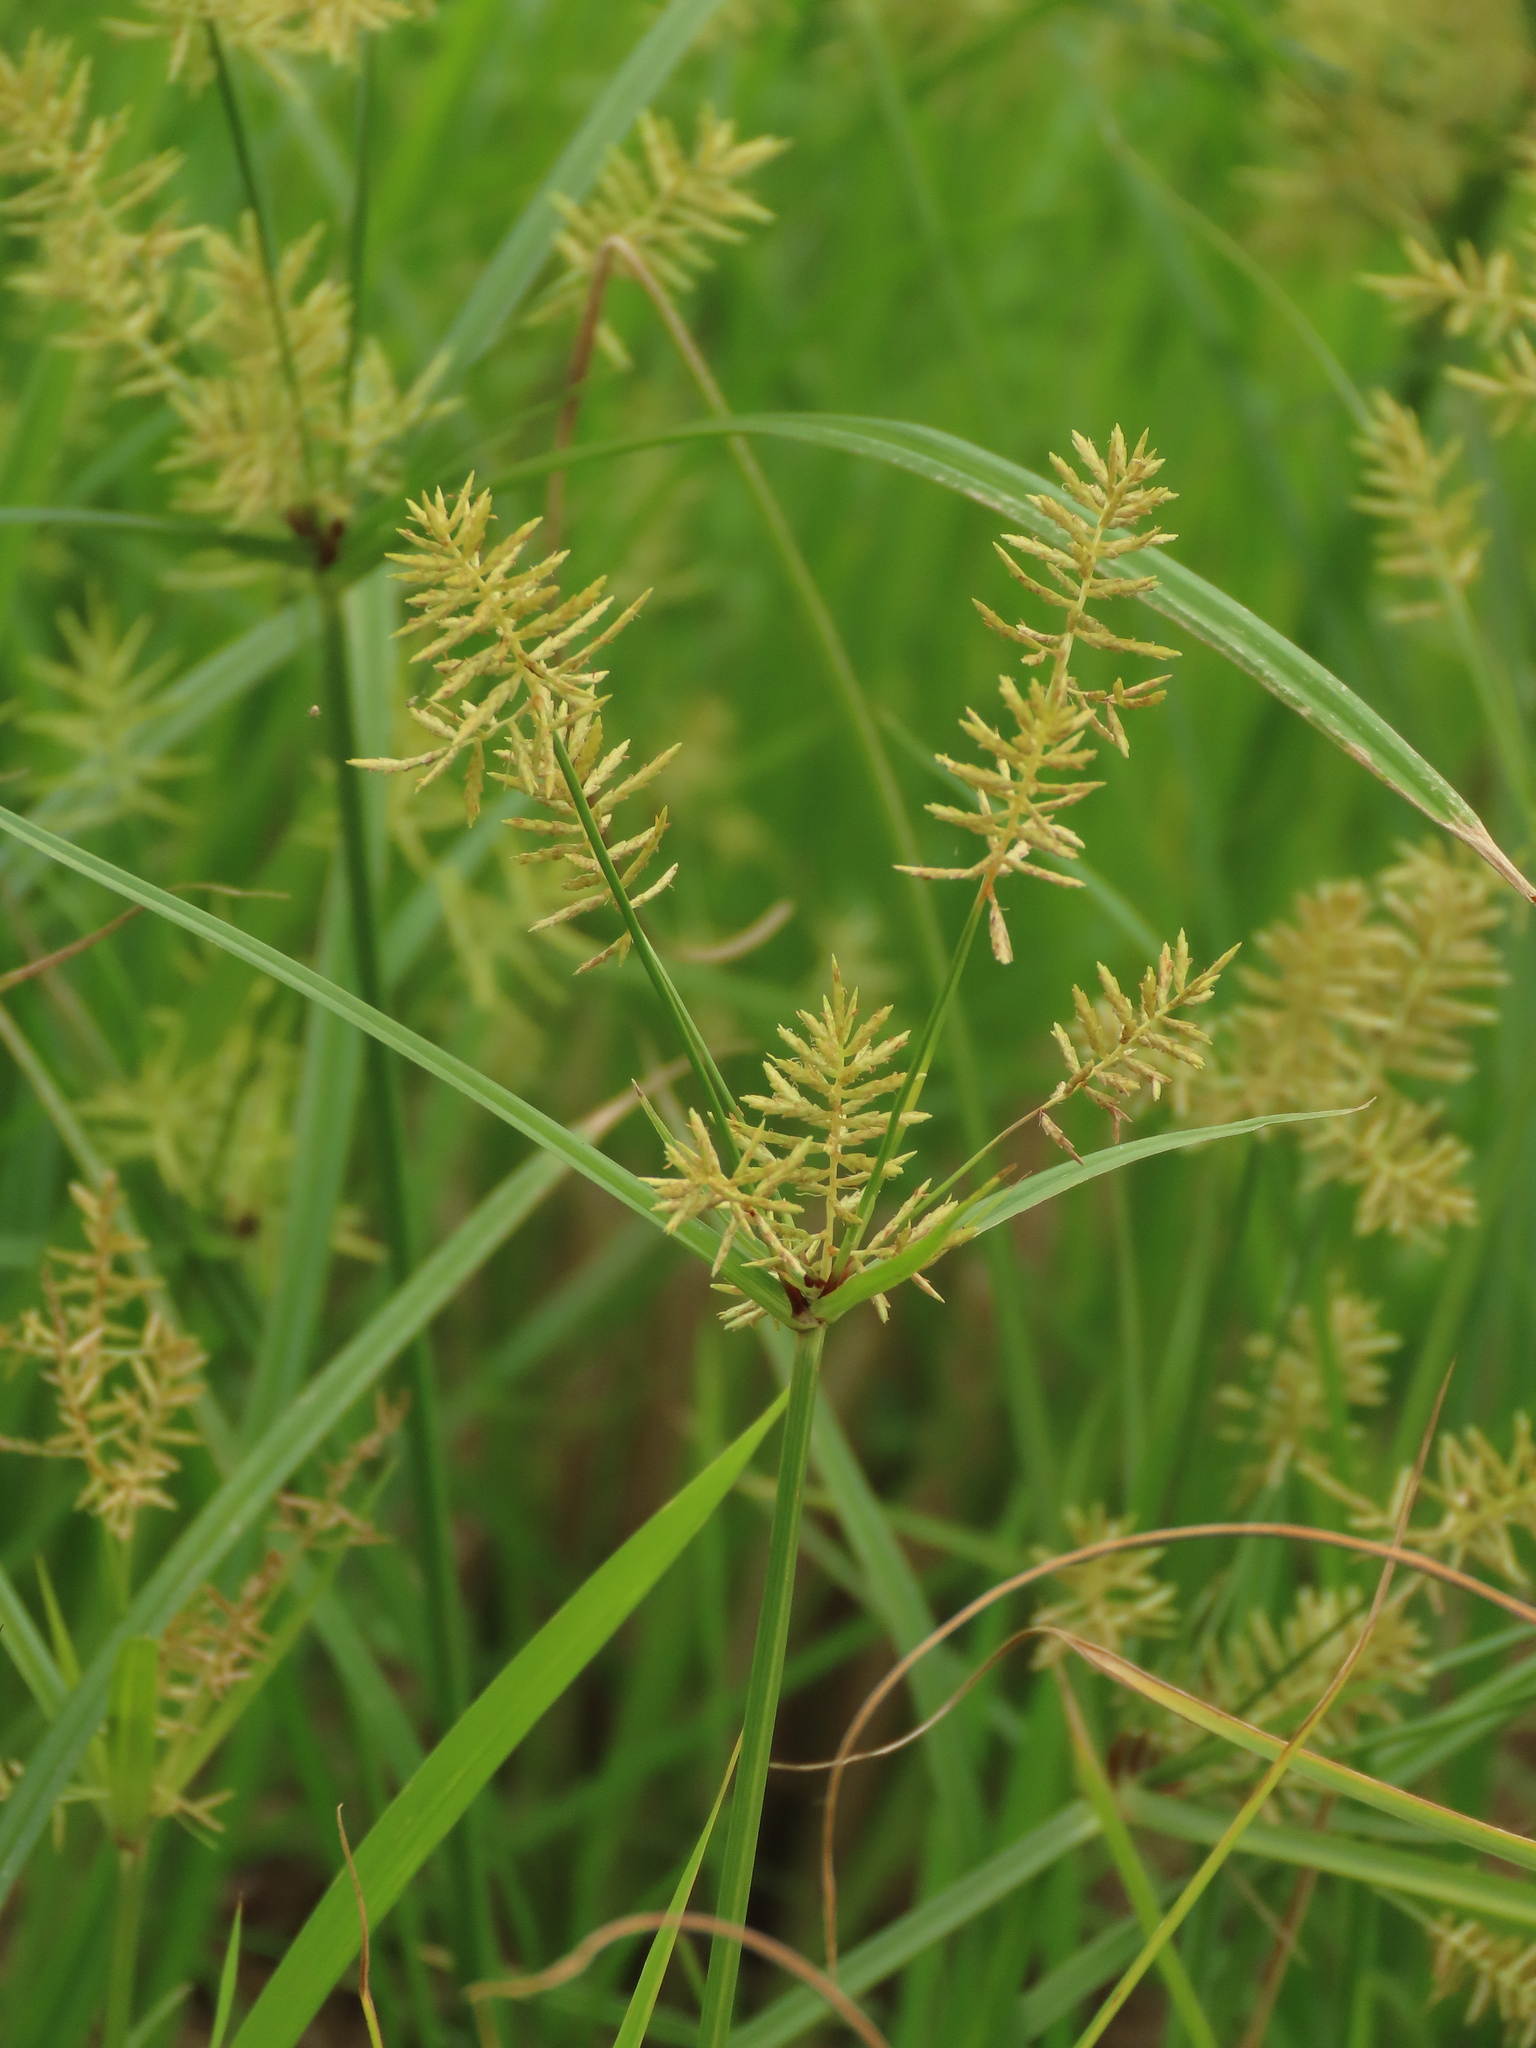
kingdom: Plantae
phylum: Tracheophyta
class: Liliopsida
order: Poales
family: Cyperaceae
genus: Cyperus
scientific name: Cyperus pilosus
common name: Fuzzy flatsedge
